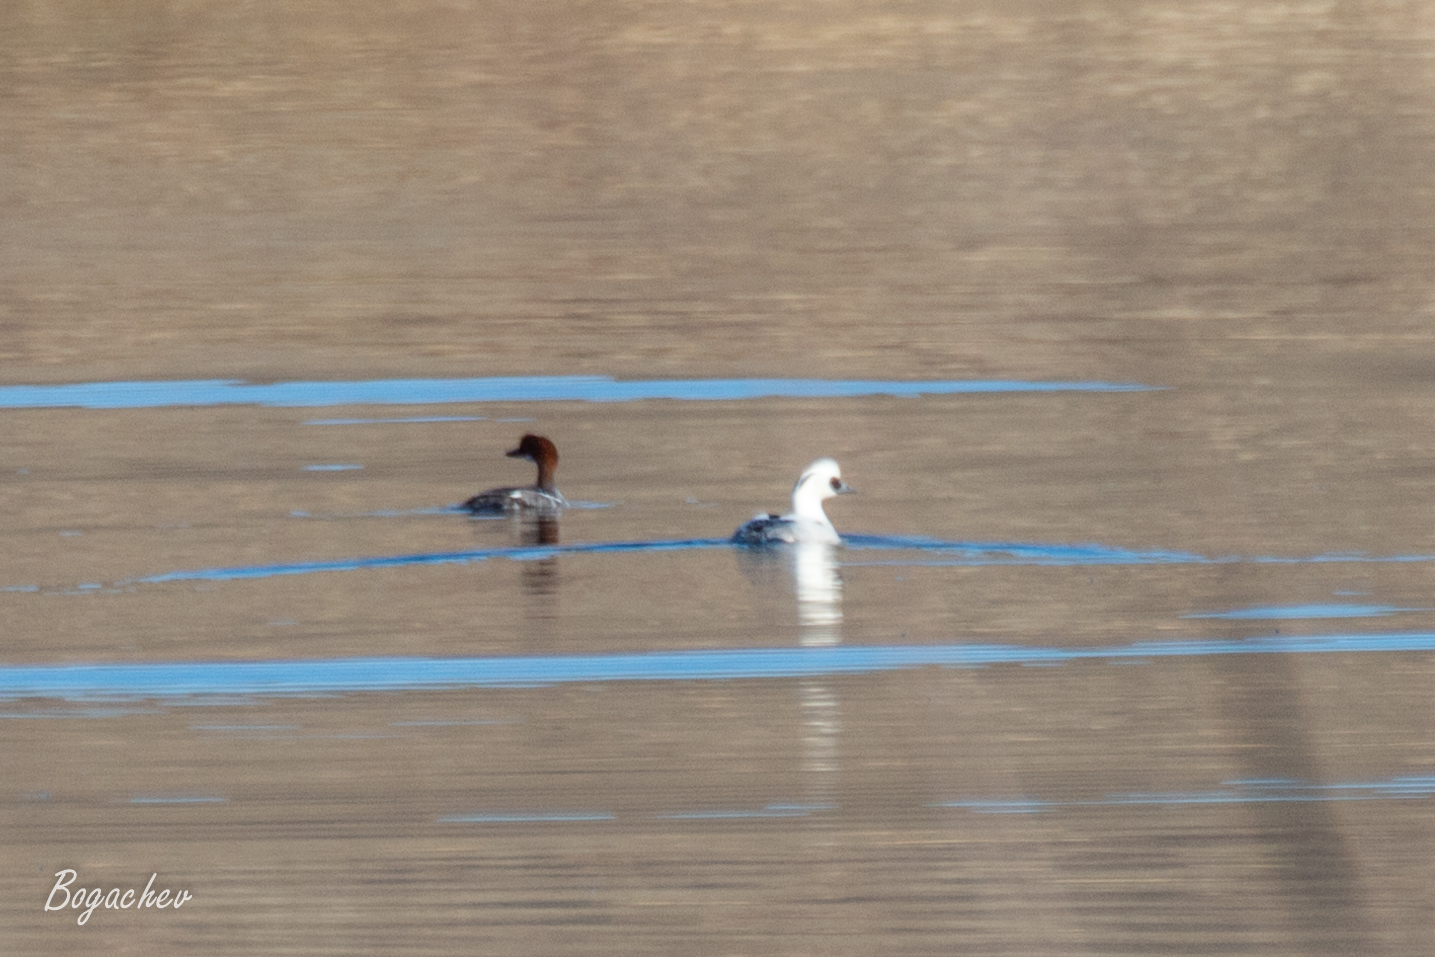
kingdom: Animalia
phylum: Chordata
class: Aves
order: Anseriformes
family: Anatidae
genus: Mergellus
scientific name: Mergellus albellus
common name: Smew
